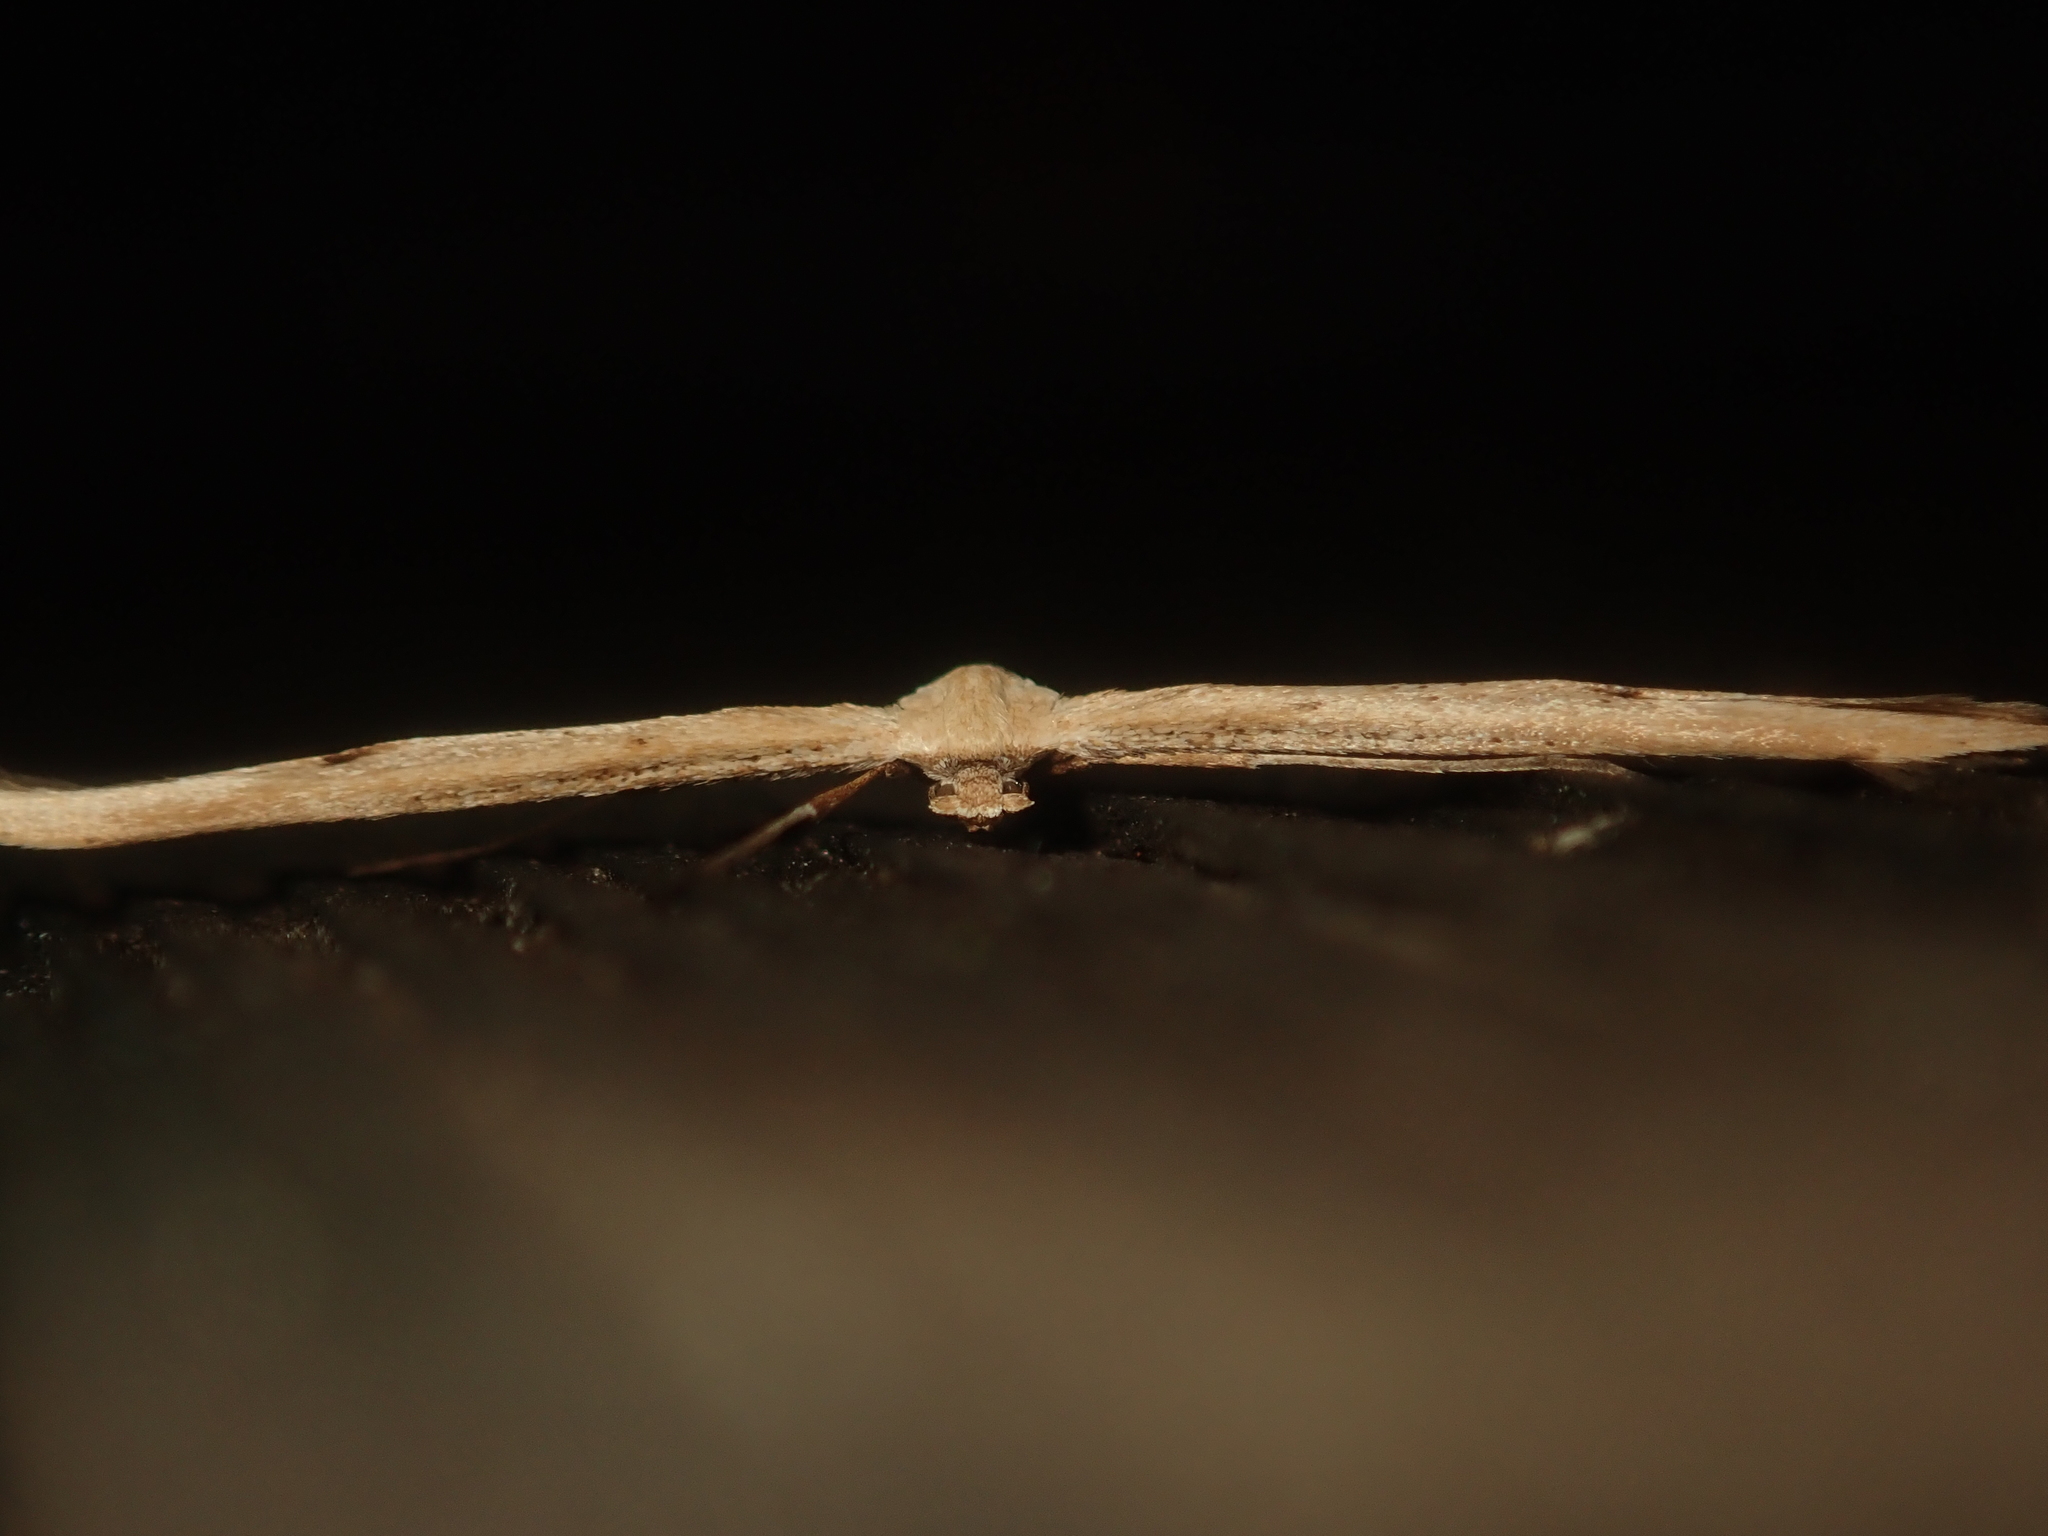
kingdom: Animalia
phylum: Arthropoda
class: Insecta
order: Lepidoptera
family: Pterophoridae
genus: Emmelina
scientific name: Emmelina monodactyla
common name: Common plume
